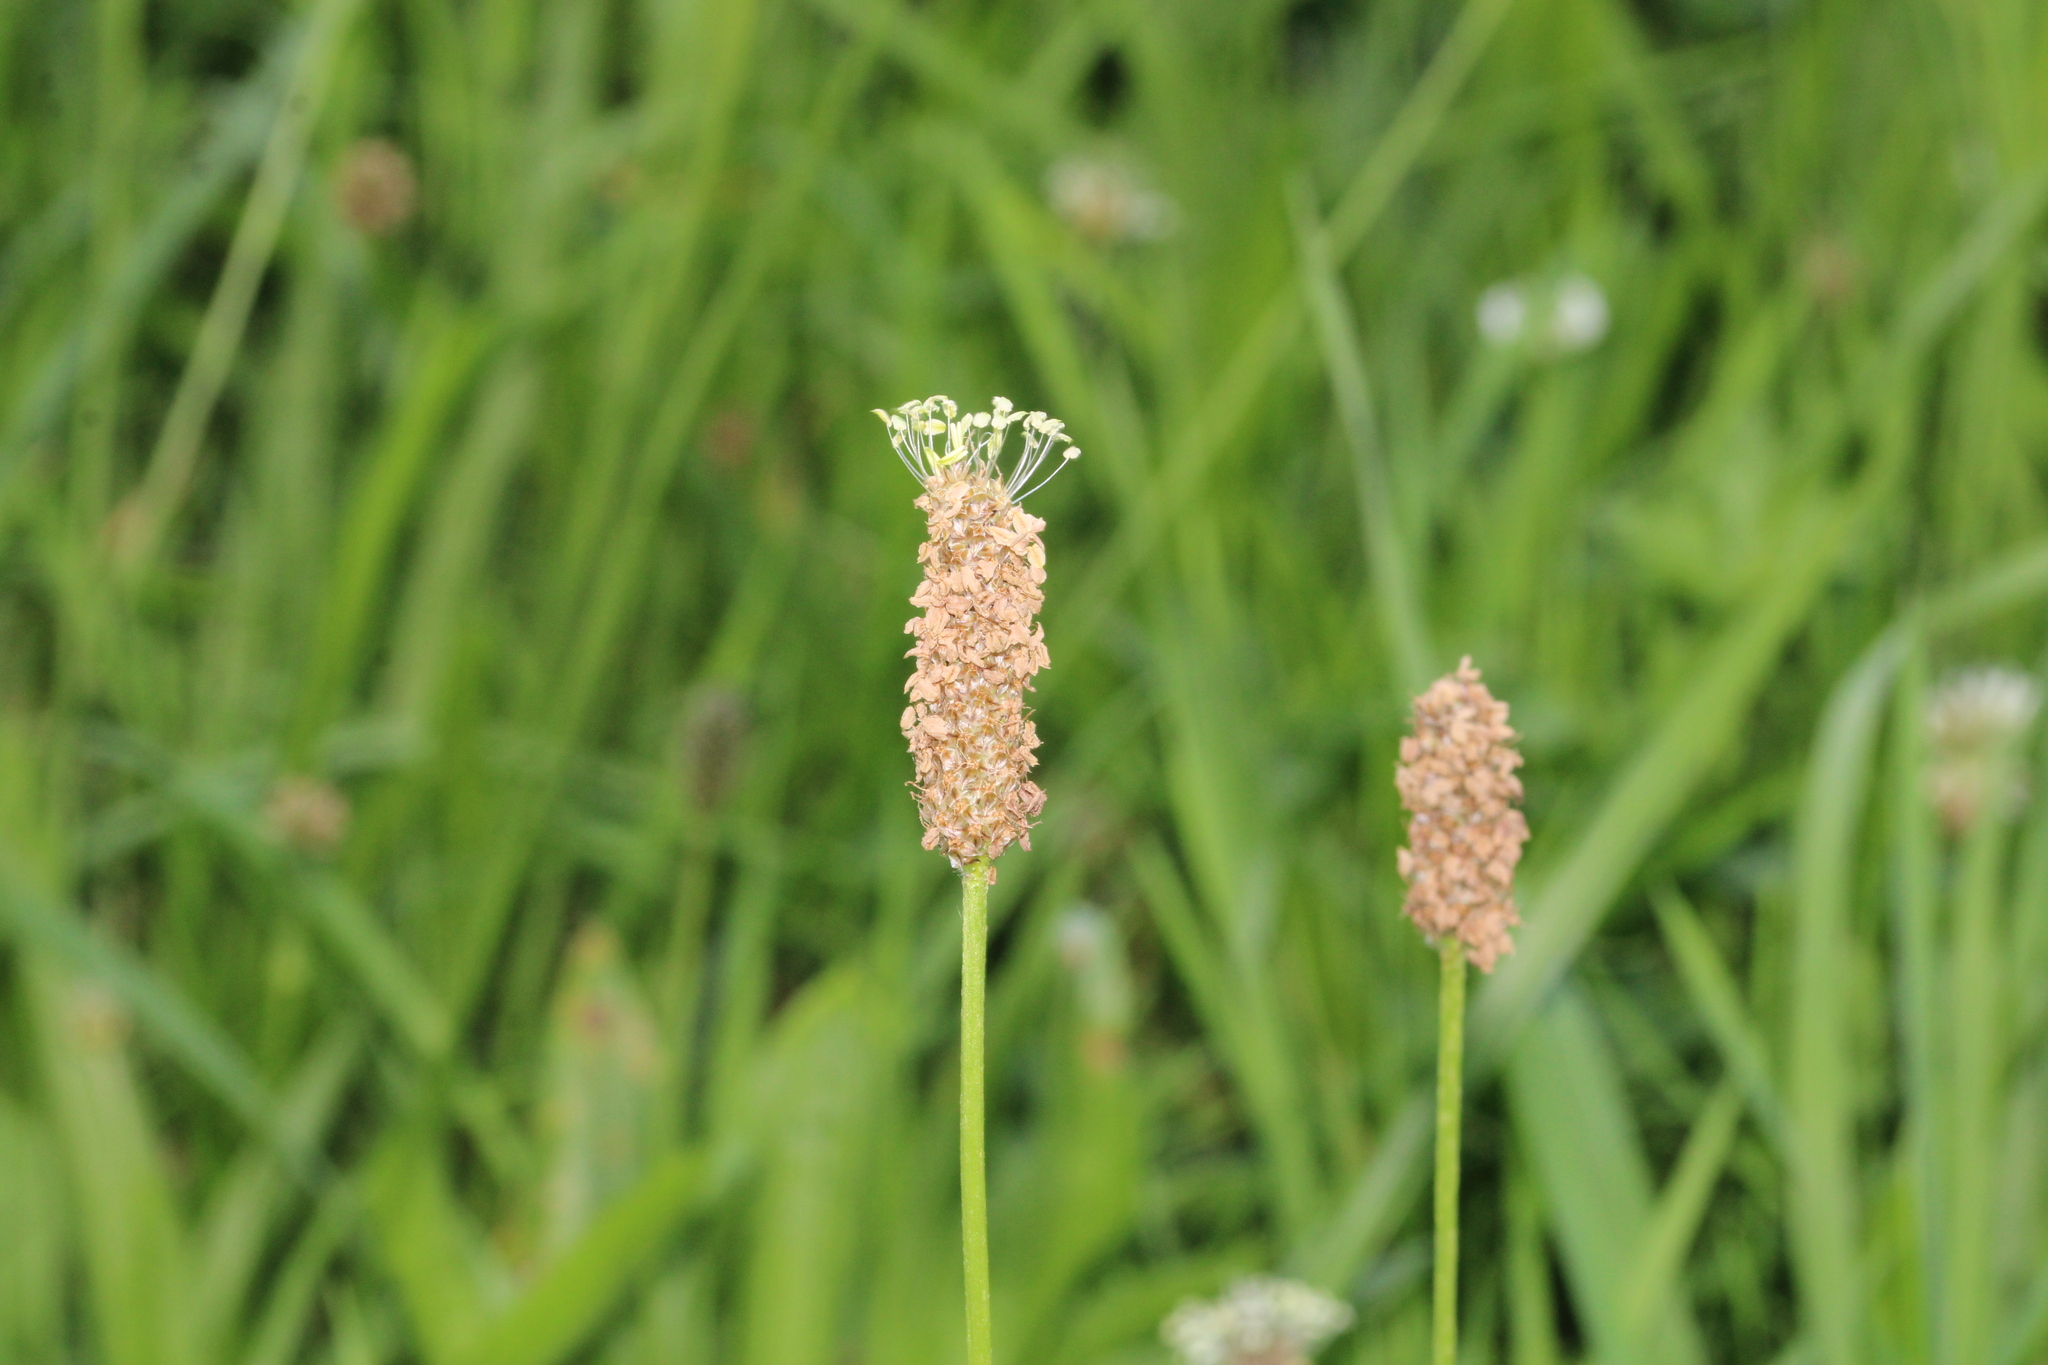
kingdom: Plantae
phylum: Tracheophyta
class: Magnoliopsida
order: Lamiales
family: Plantaginaceae
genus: Plantago
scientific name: Plantago lanceolata
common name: Ribwort plantain
